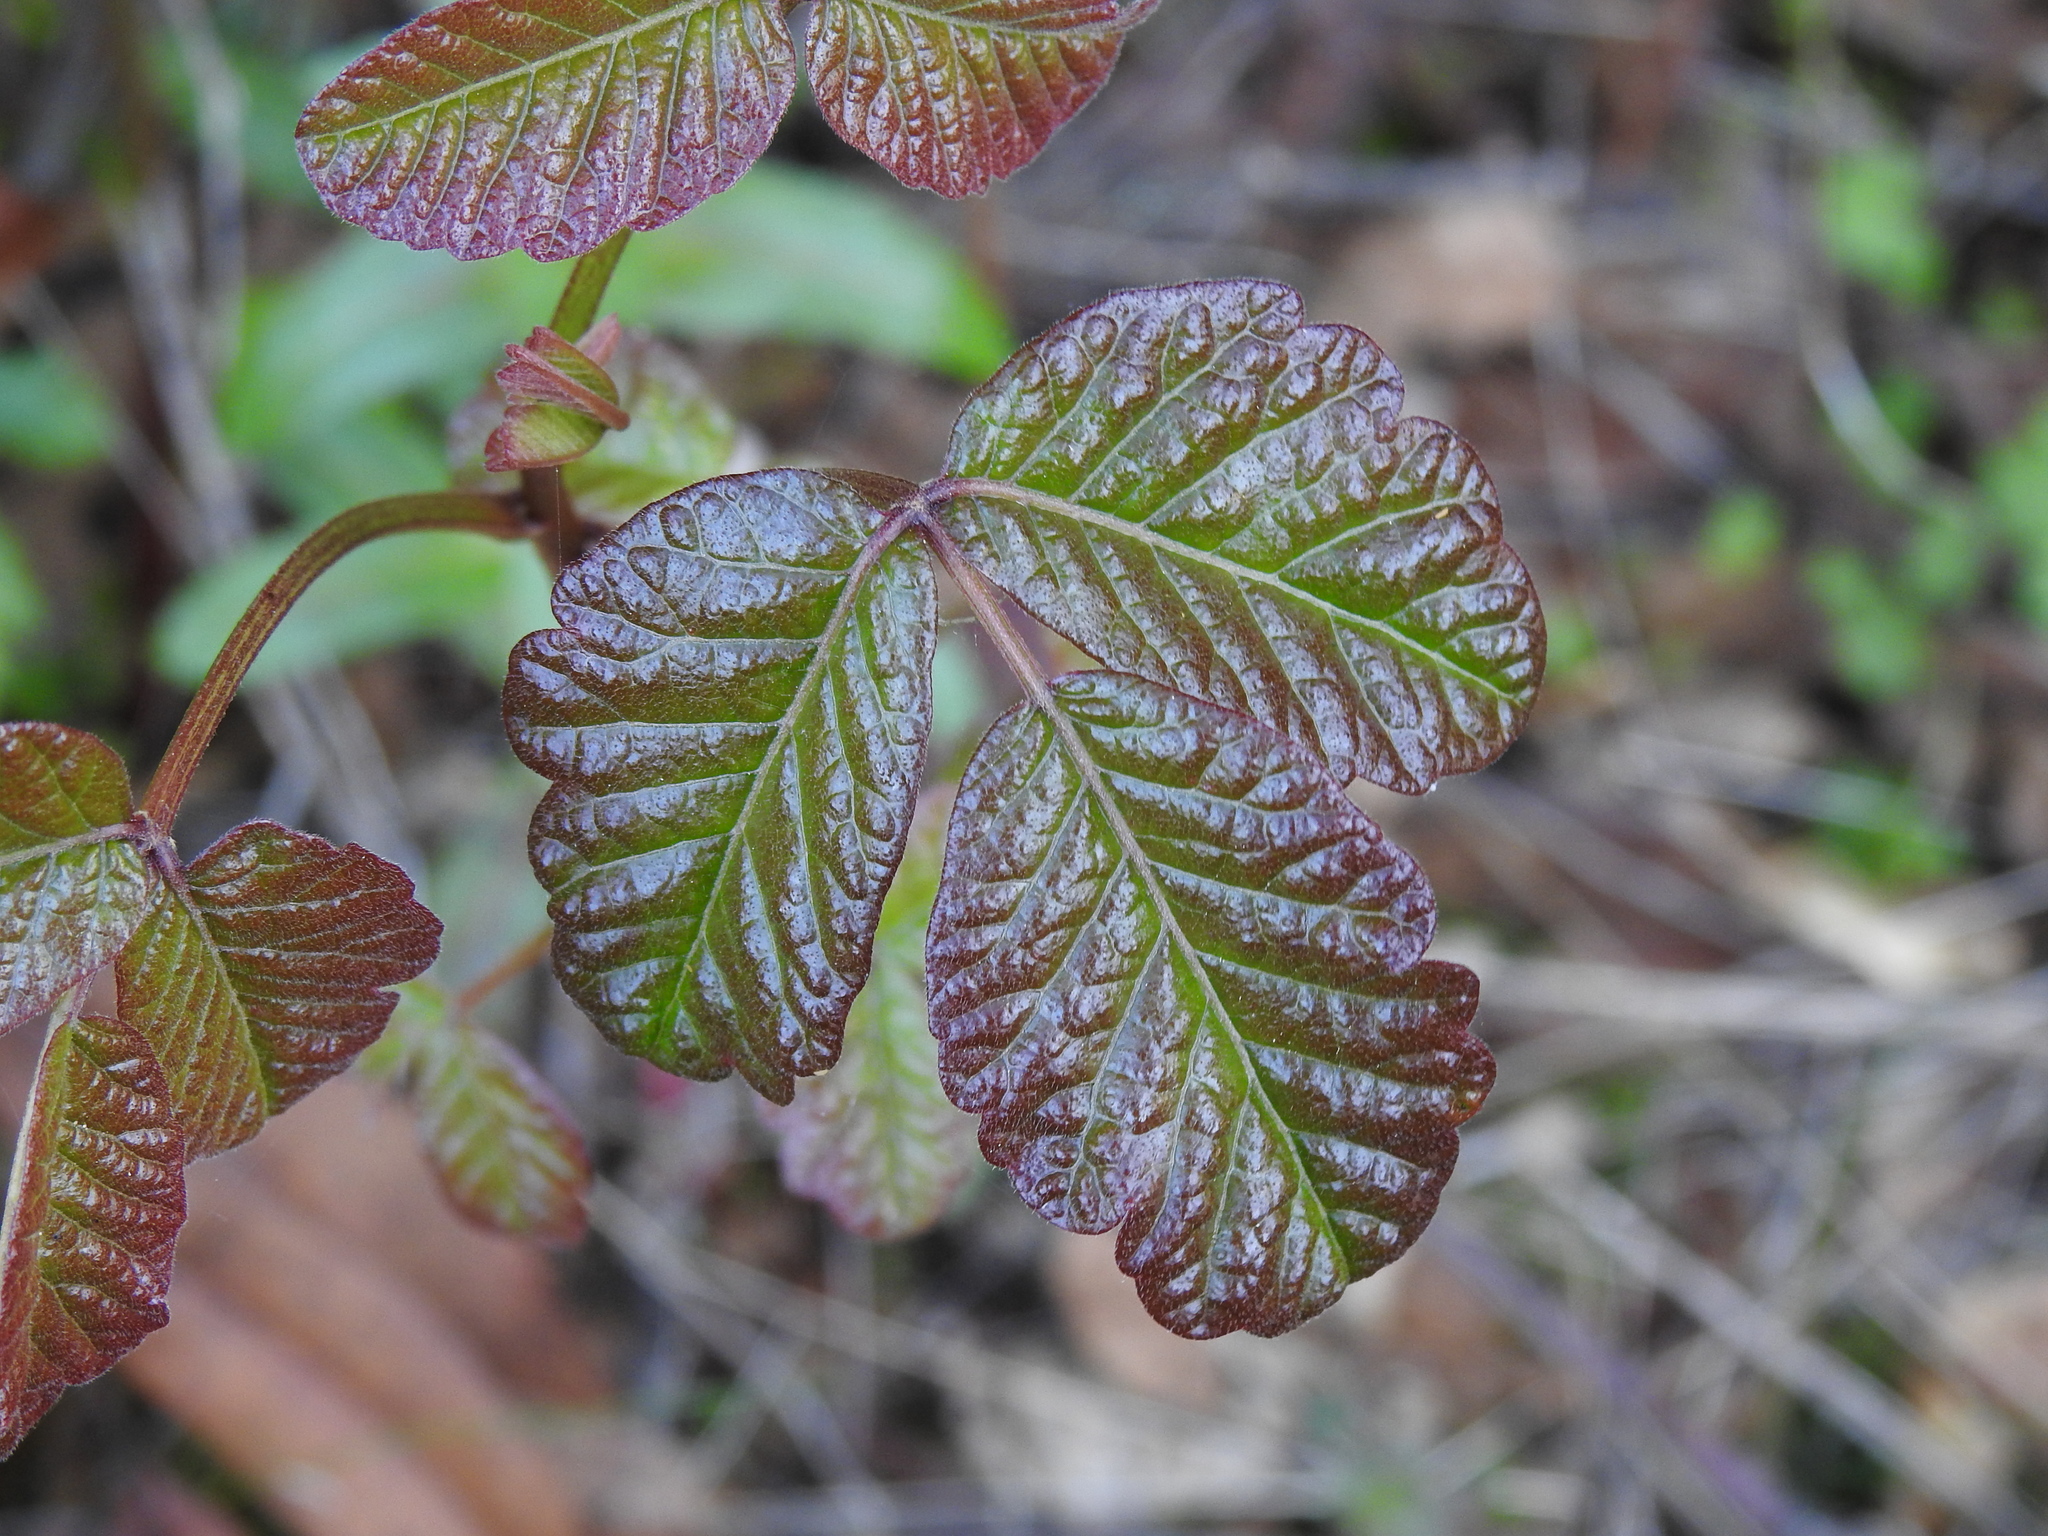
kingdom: Plantae
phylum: Tracheophyta
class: Magnoliopsida
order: Sapindales
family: Anacardiaceae
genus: Toxicodendron
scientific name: Toxicodendron diversilobum
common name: Pacific poison-oak
